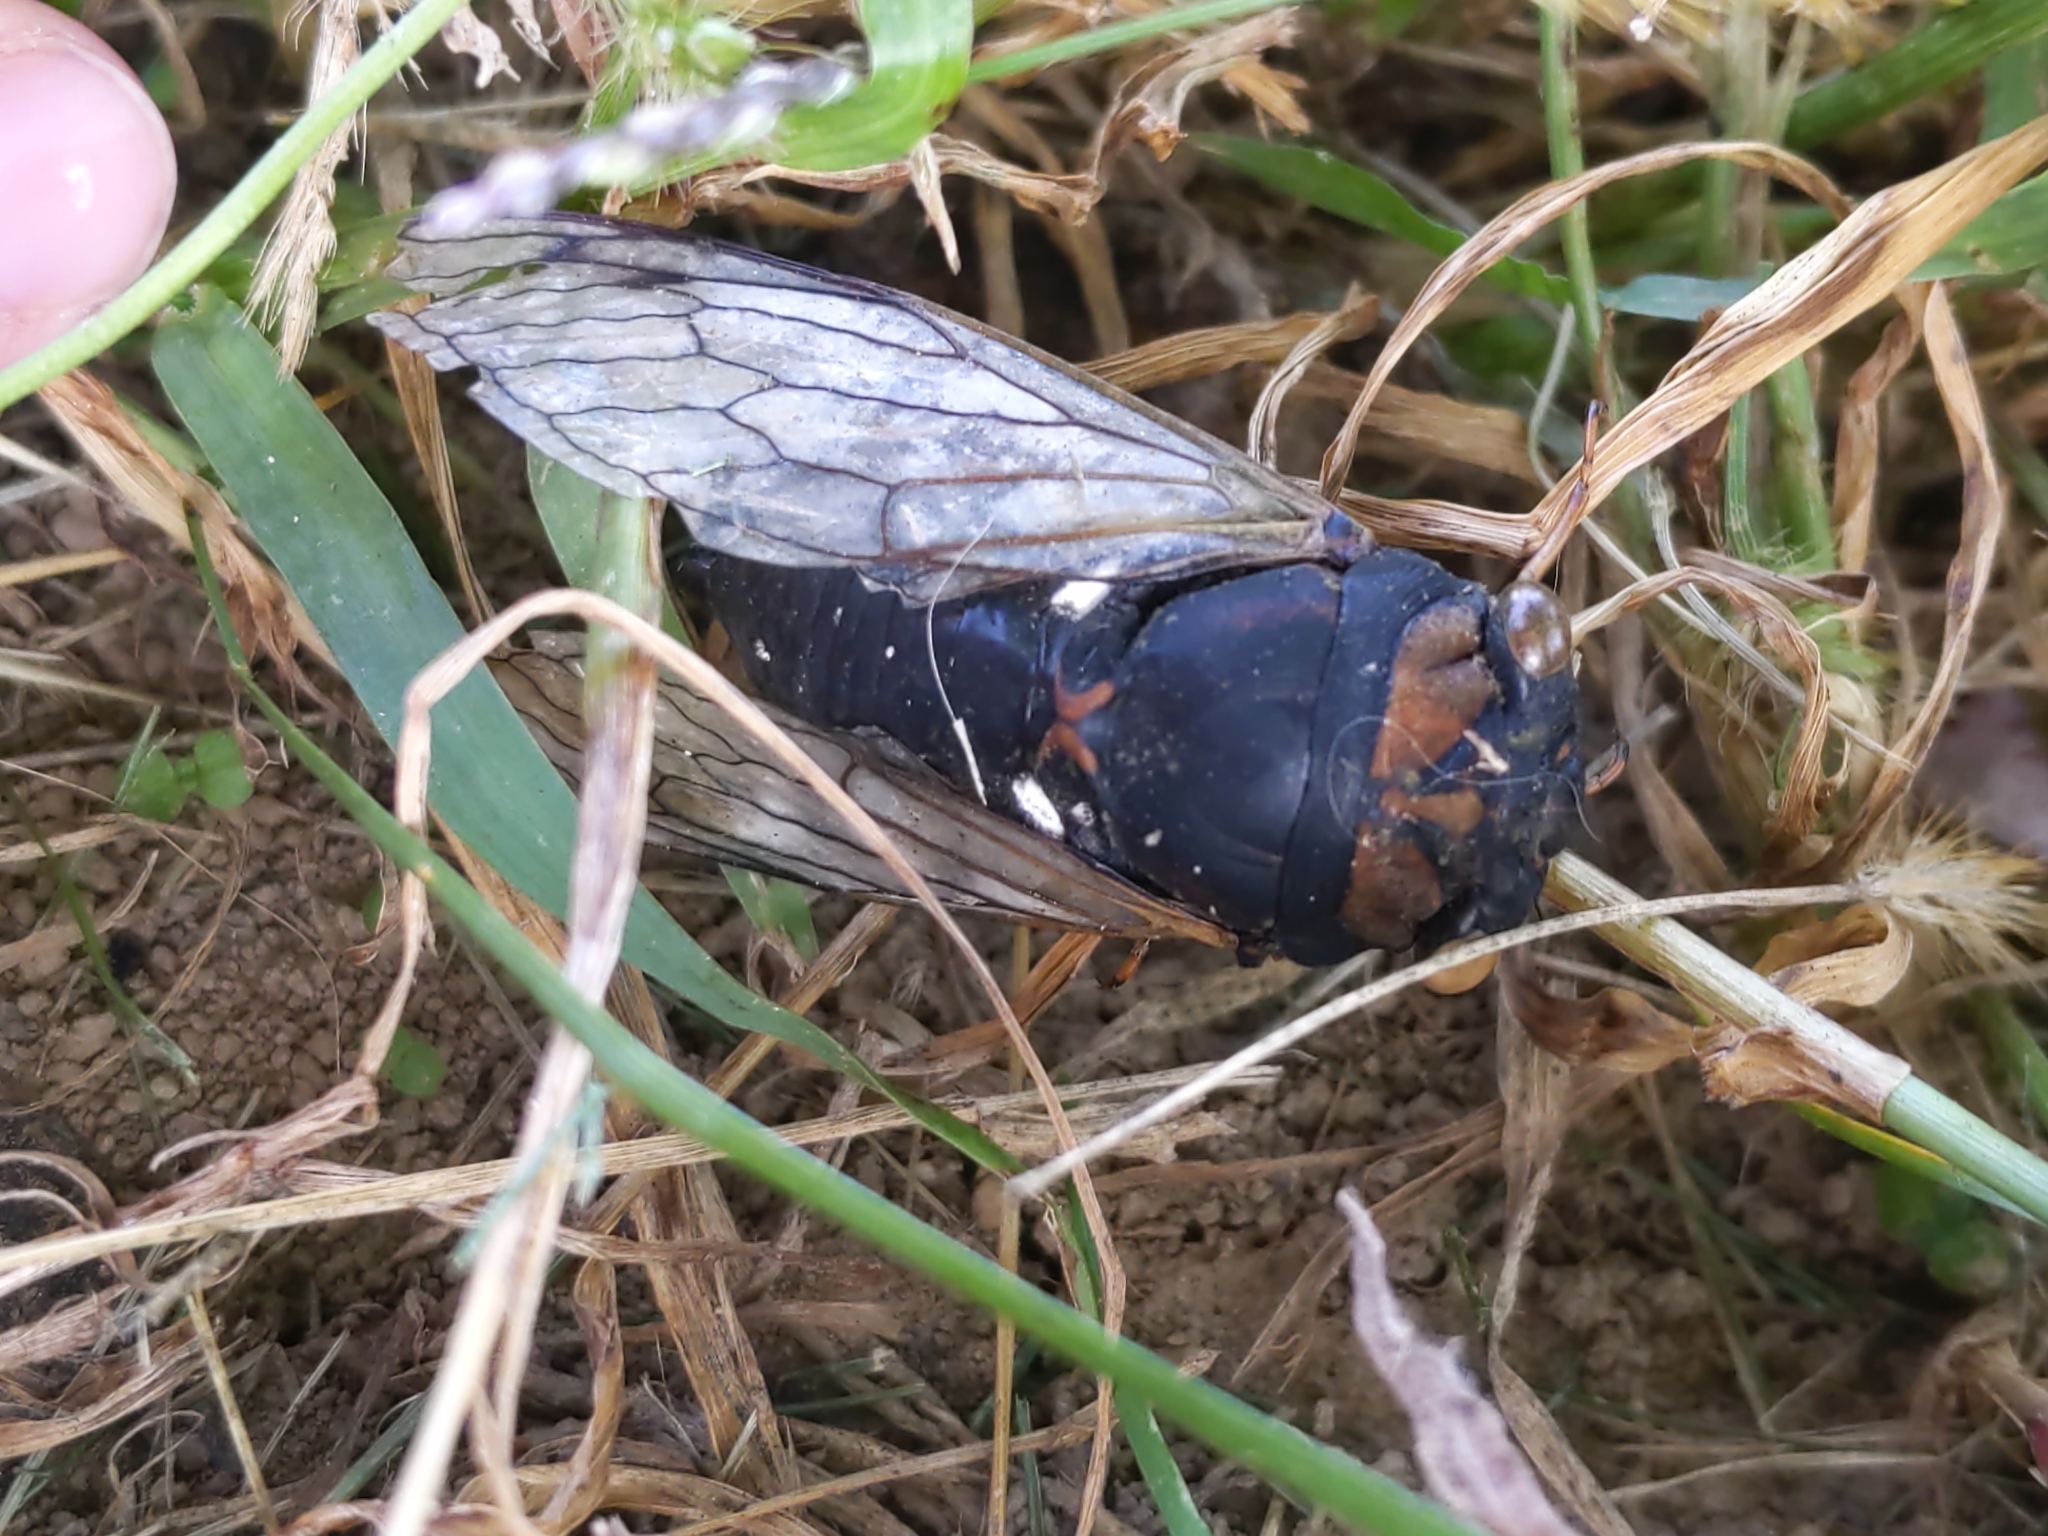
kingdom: Animalia
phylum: Arthropoda
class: Insecta
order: Hemiptera
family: Cicadidae
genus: Neotibicen
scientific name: Neotibicen tibicen
